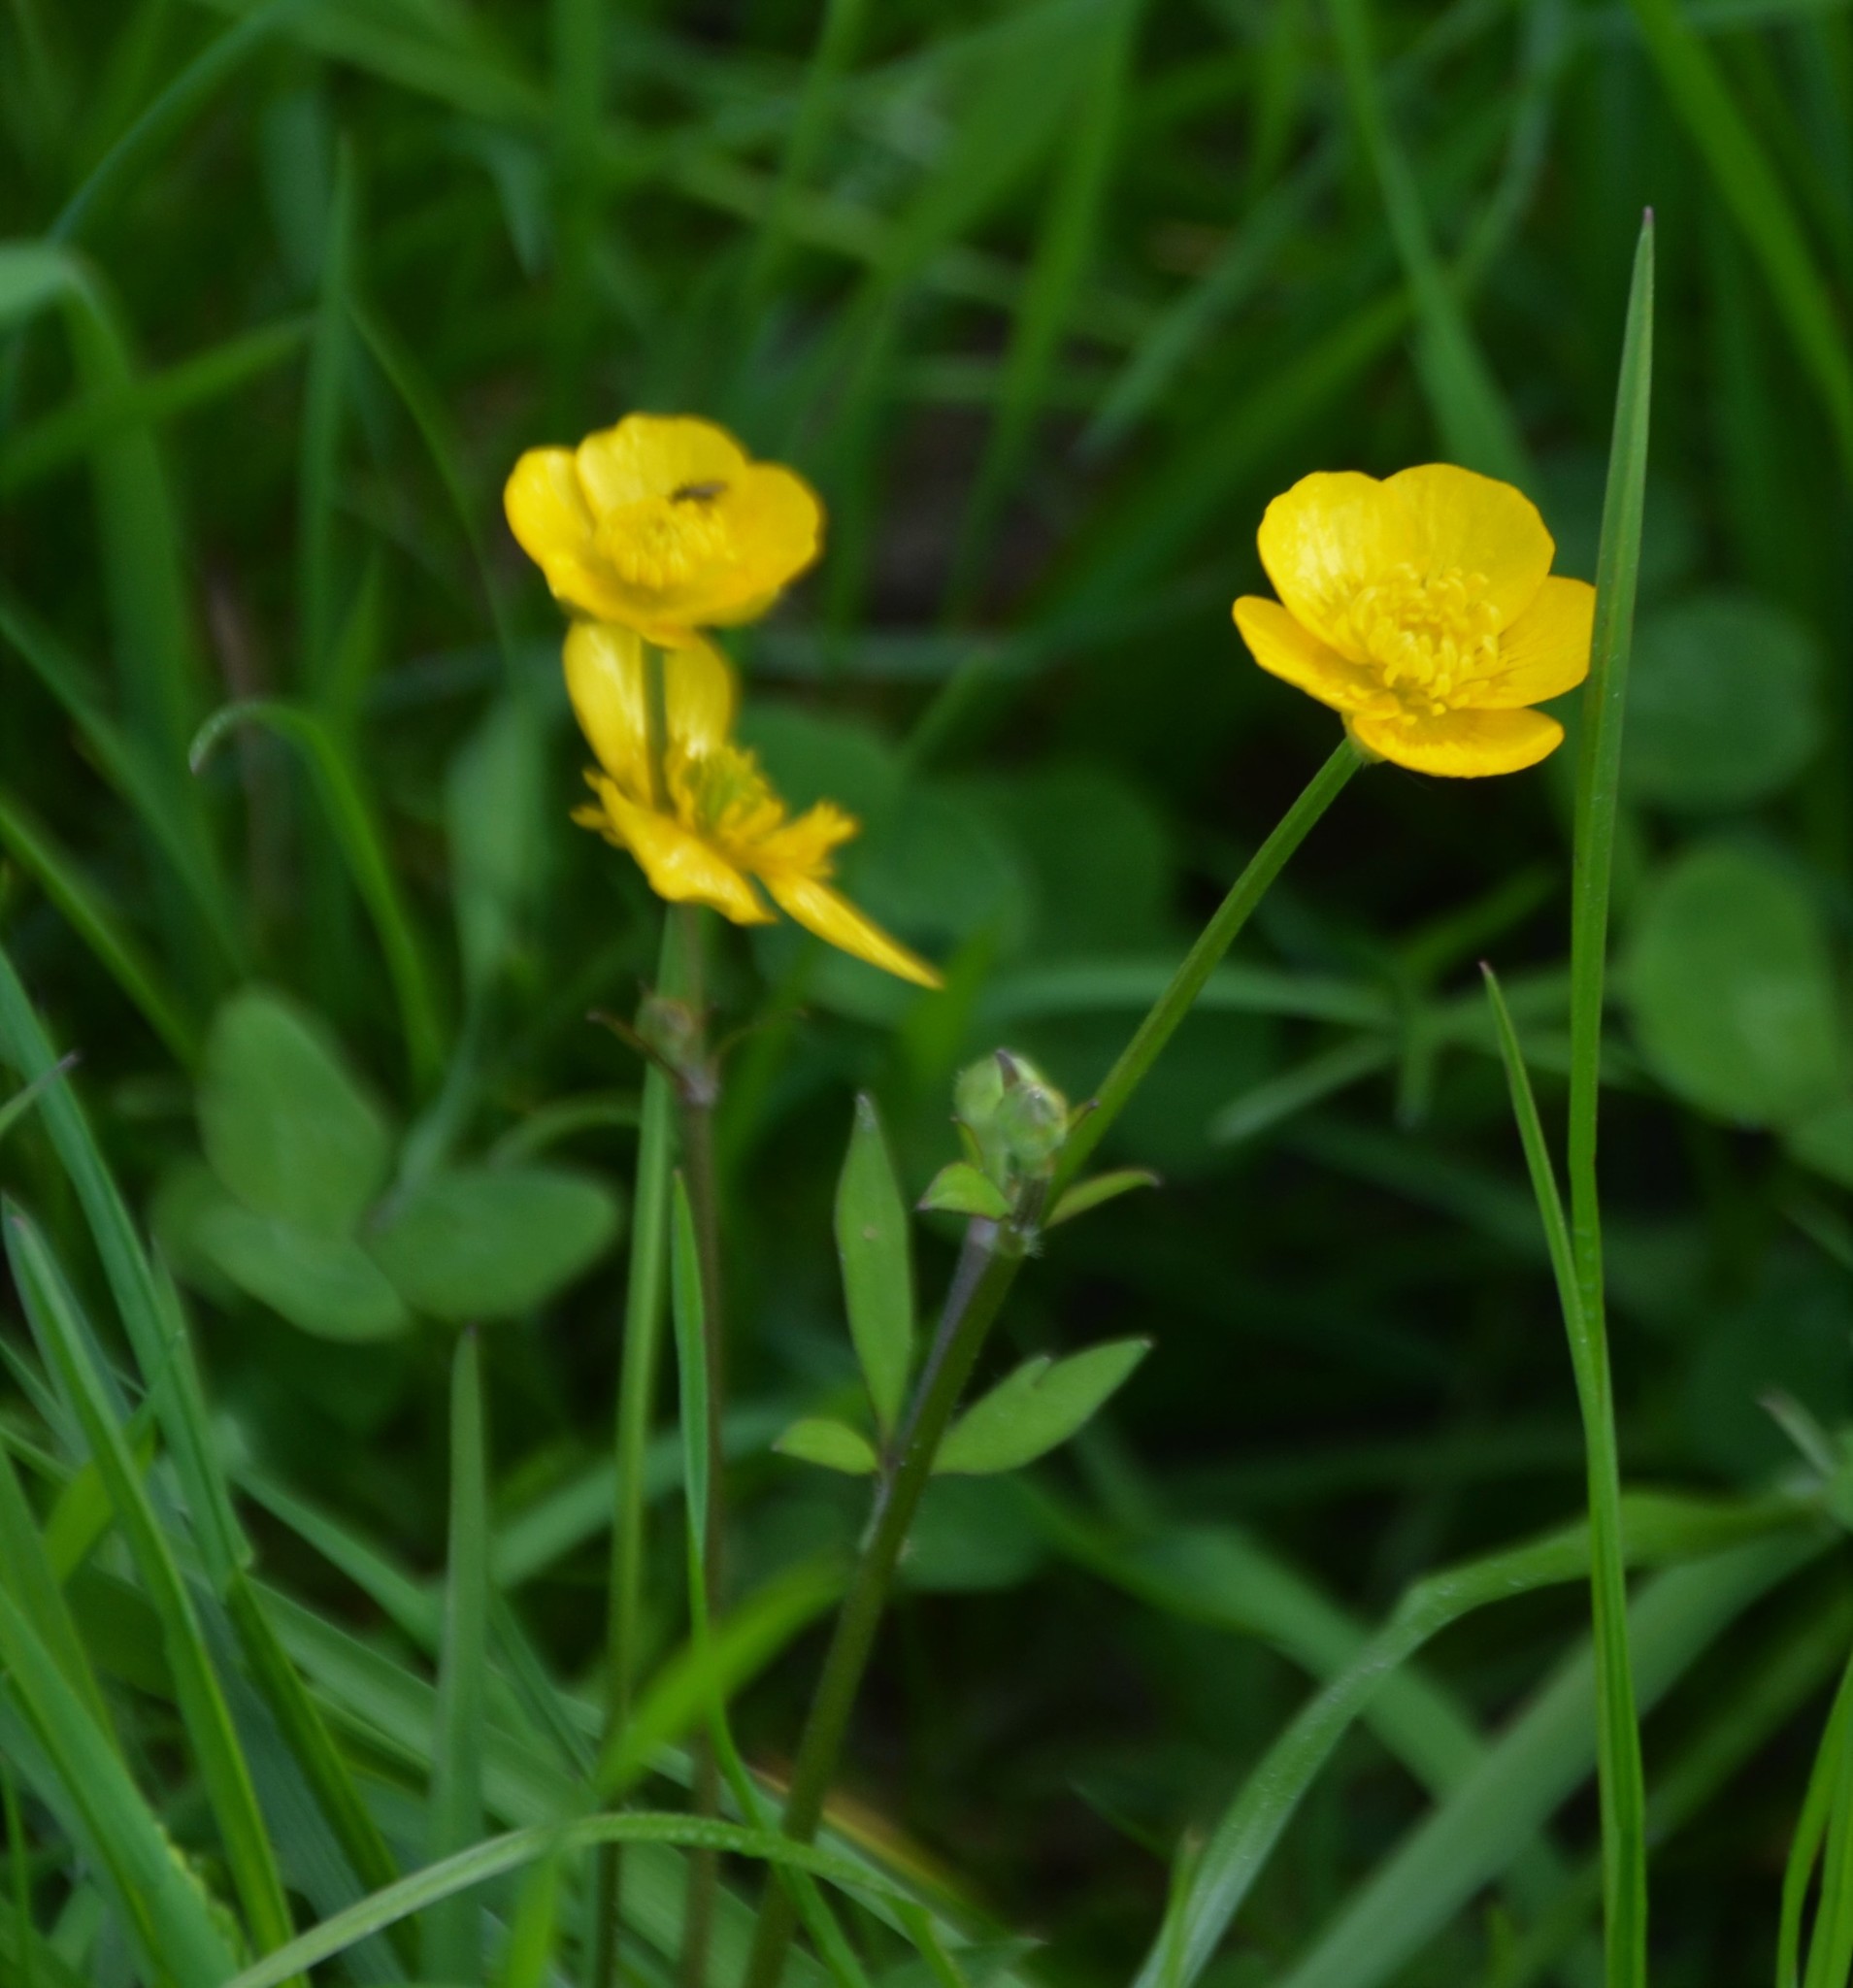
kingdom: Plantae
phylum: Tracheophyta
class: Magnoliopsida
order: Ranunculales
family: Ranunculaceae
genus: Ranunculus
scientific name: Ranunculus repens
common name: Creeping buttercup
